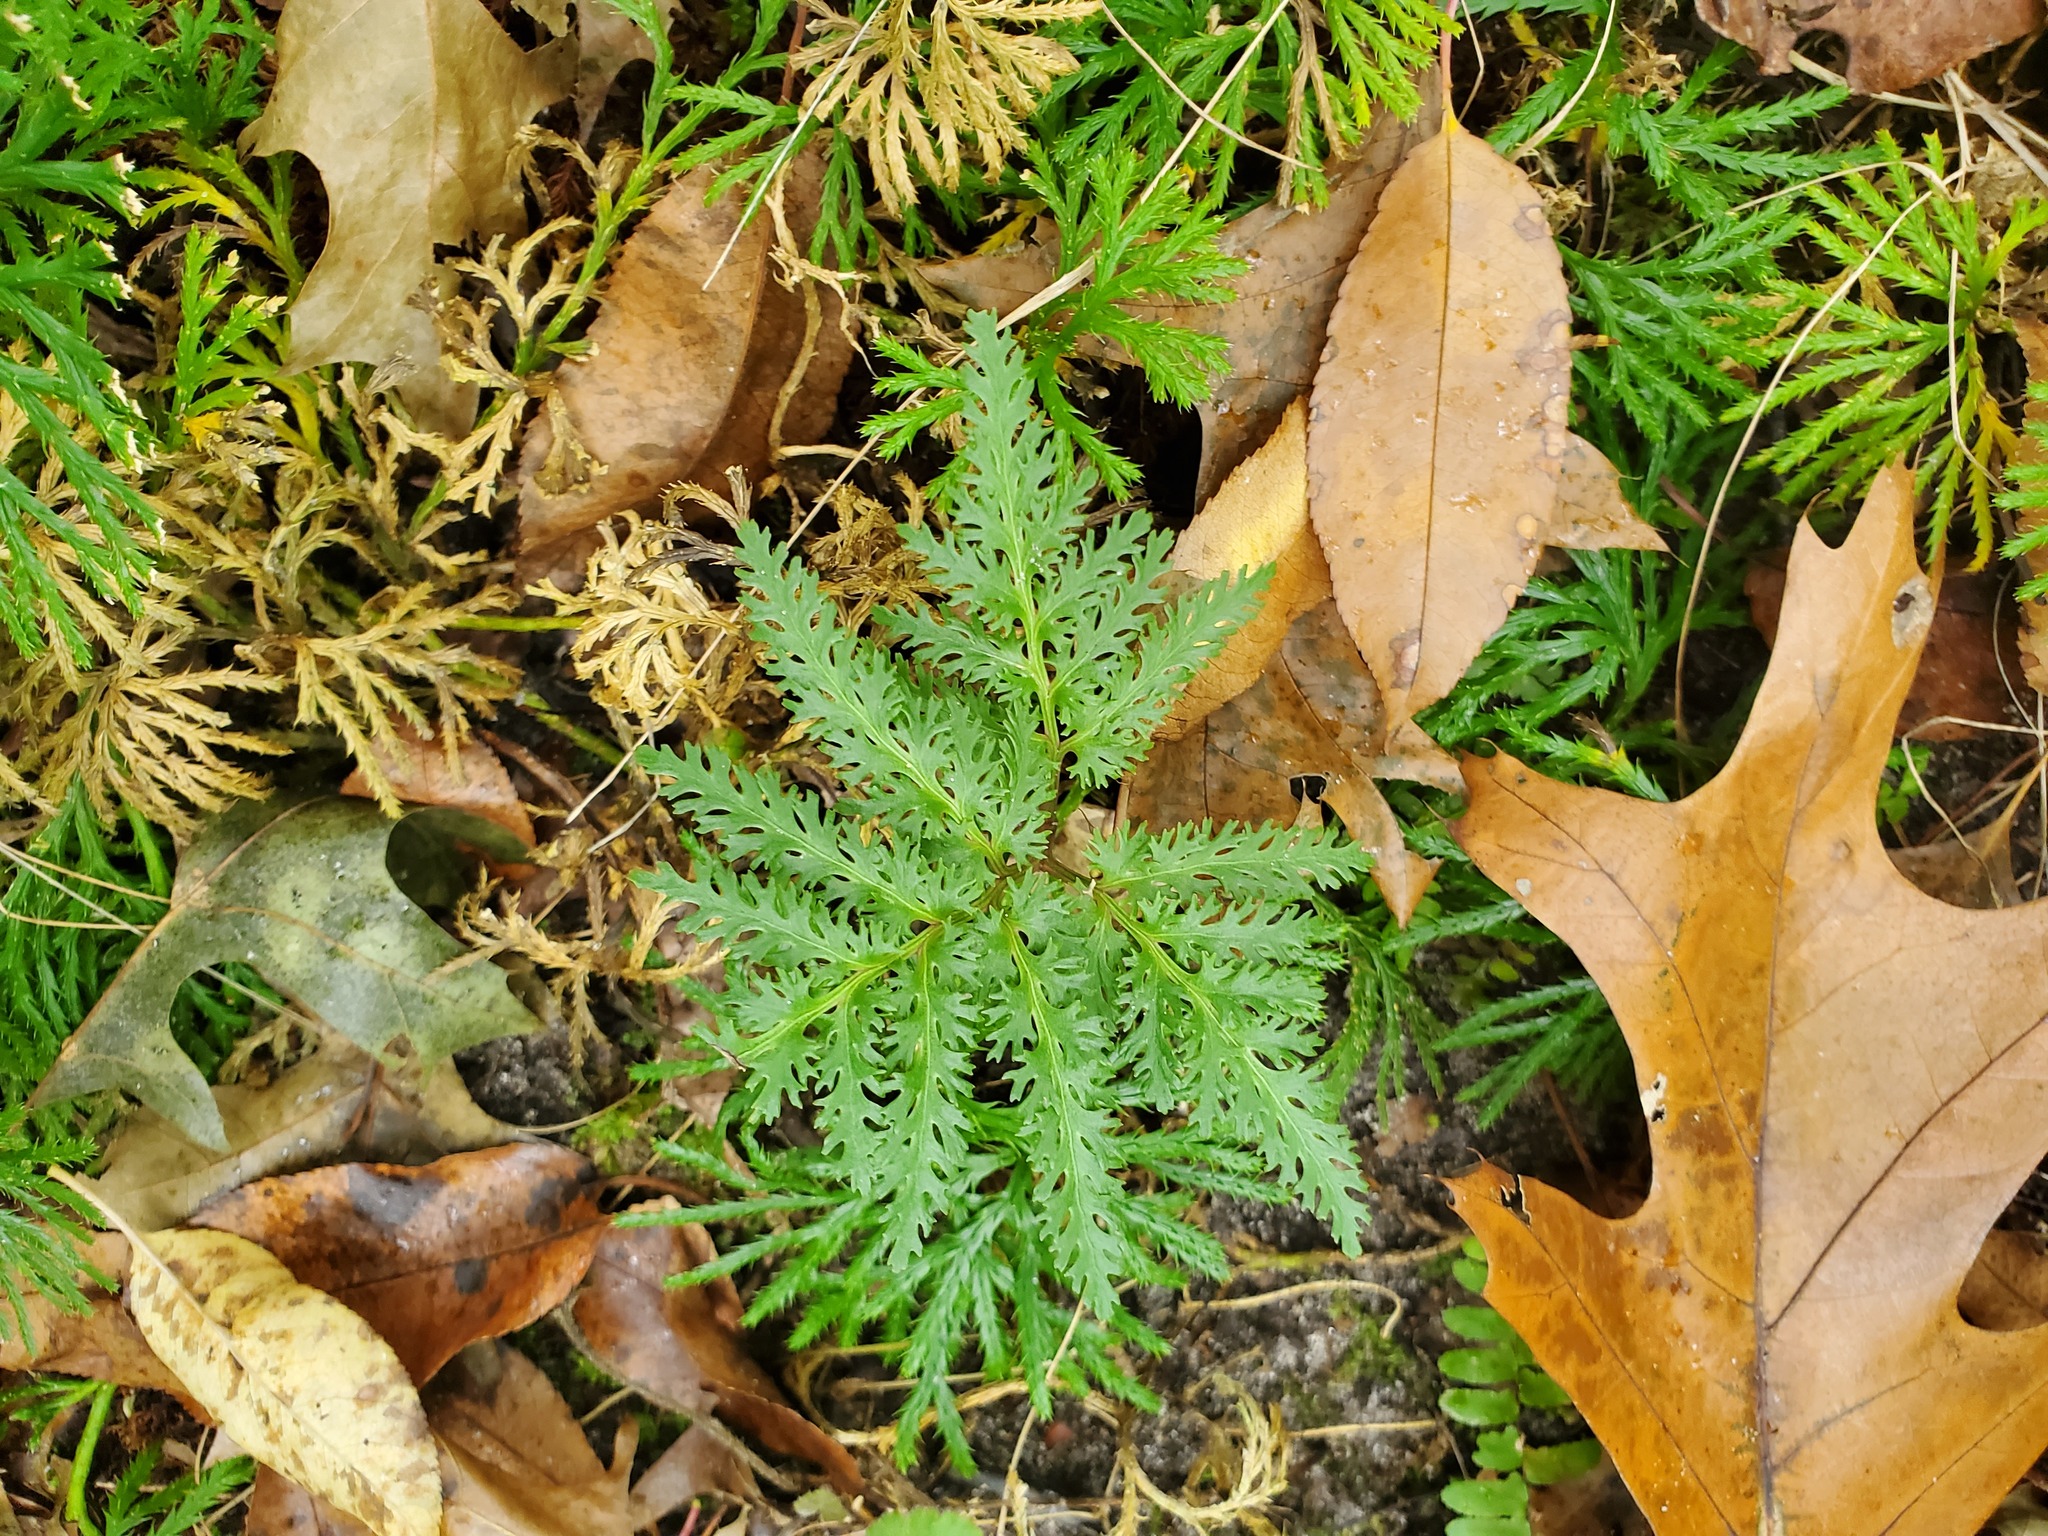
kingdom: Plantae
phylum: Tracheophyta
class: Polypodiopsida
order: Ophioglossales
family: Ophioglossaceae
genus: Sceptridium
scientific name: Sceptridium dissectum
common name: Cut-leaved grapefern
